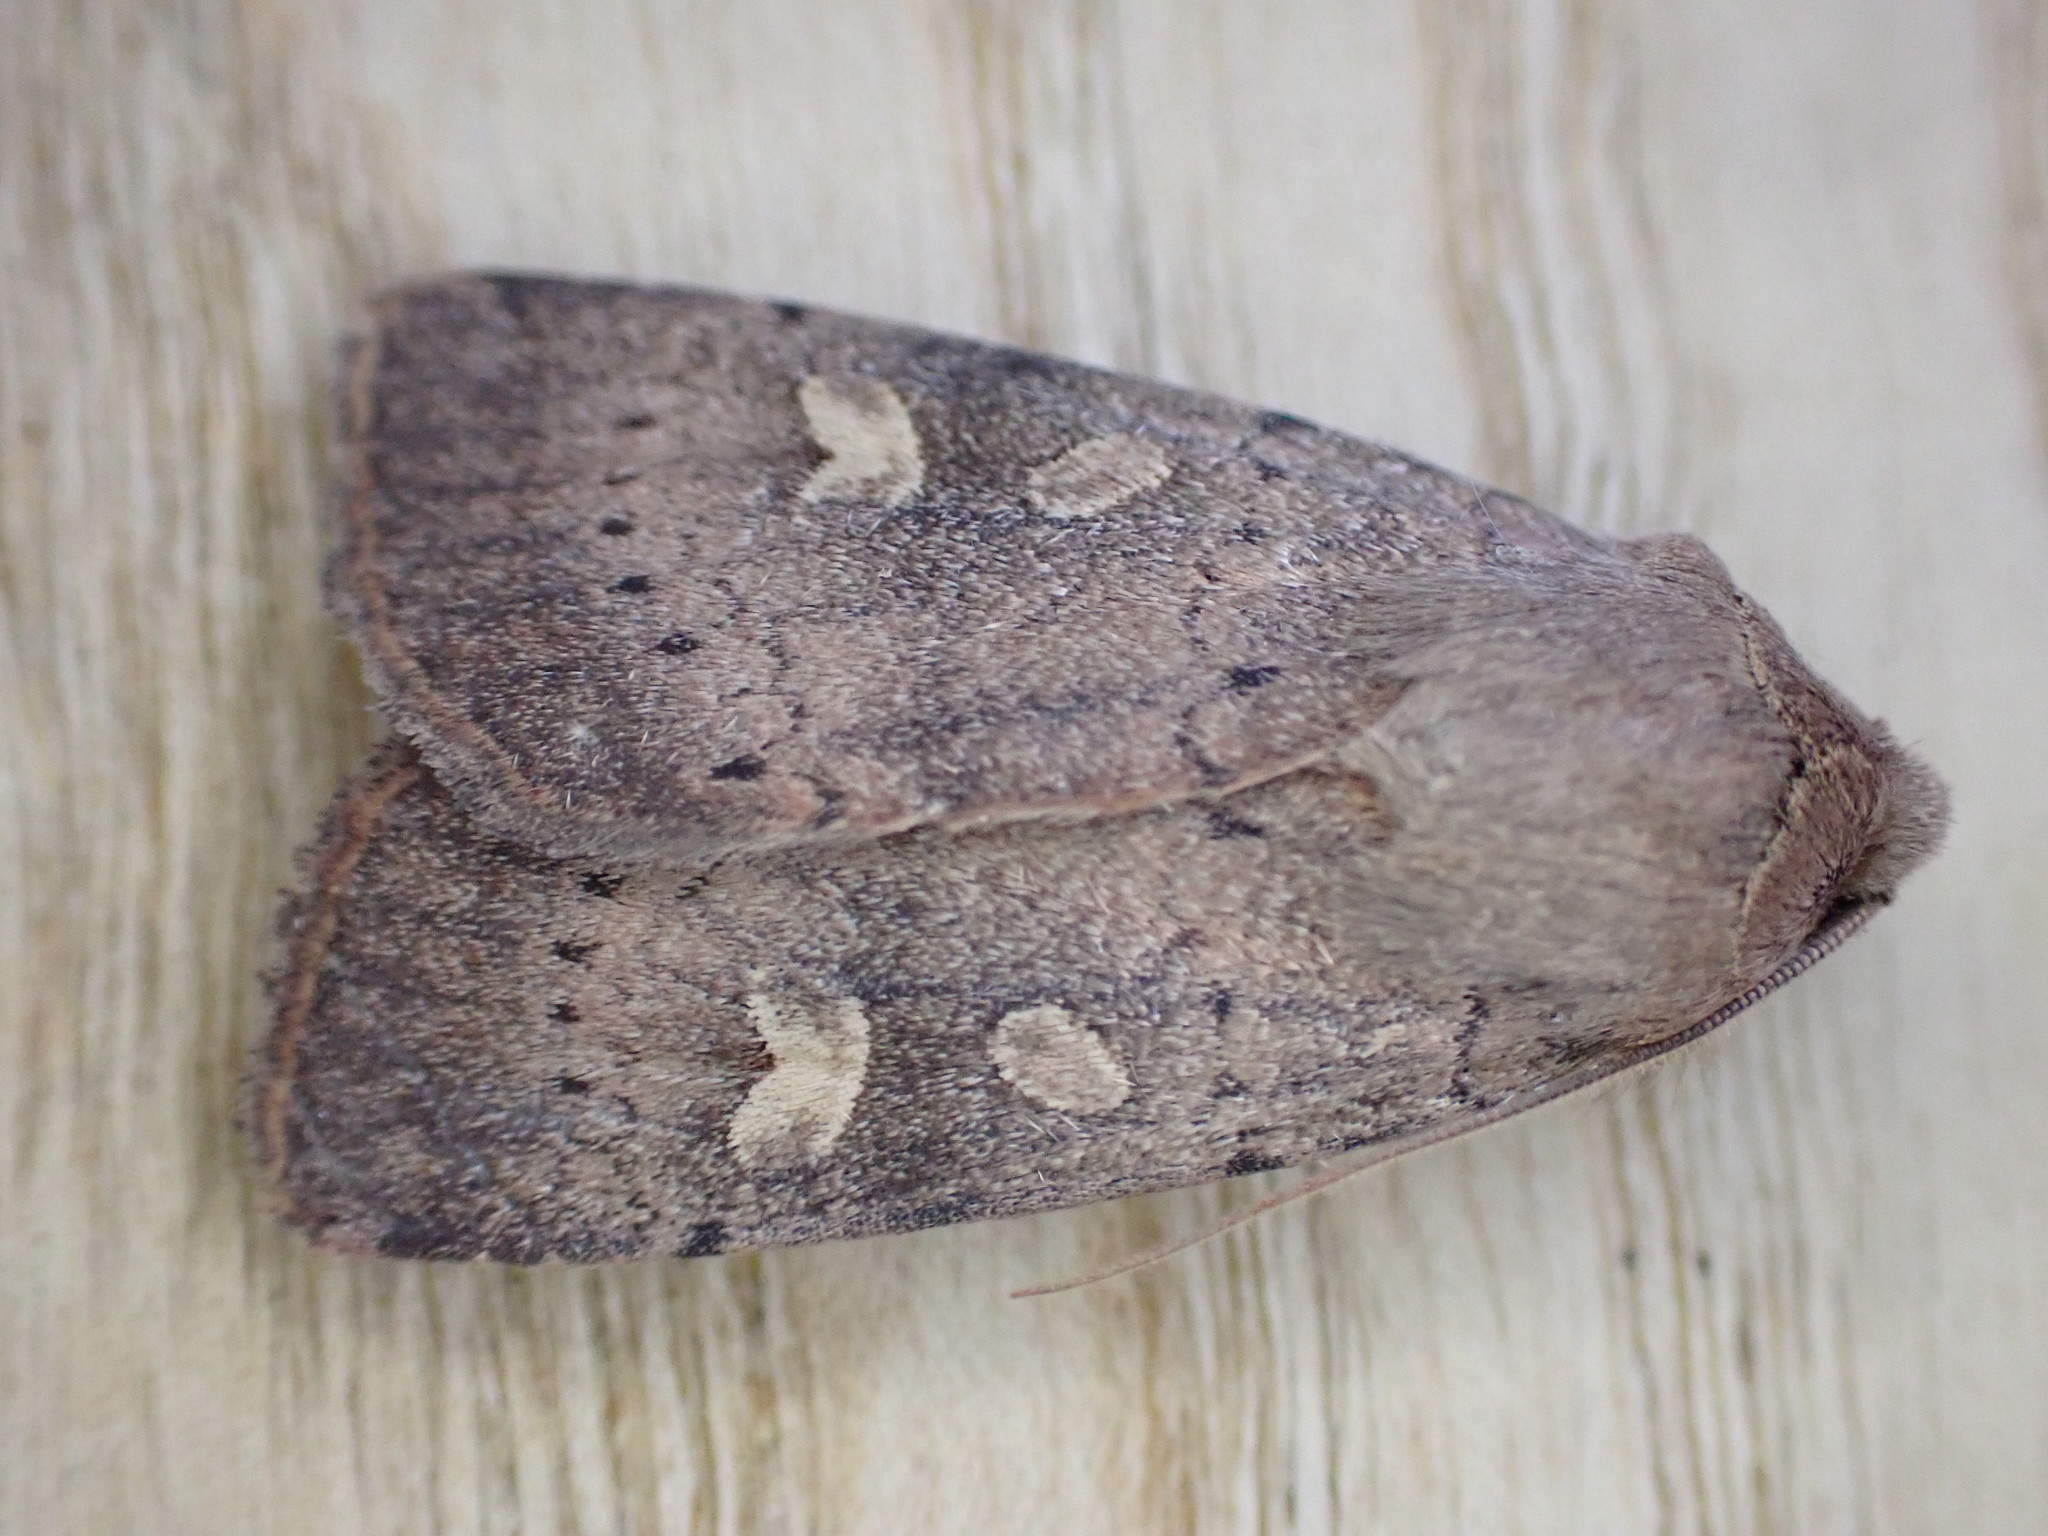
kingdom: Animalia
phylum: Arthropoda
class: Insecta
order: Lepidoptera
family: Noctuidae
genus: Xestia
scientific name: Xestia xanthographa
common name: Square-spot rustic
